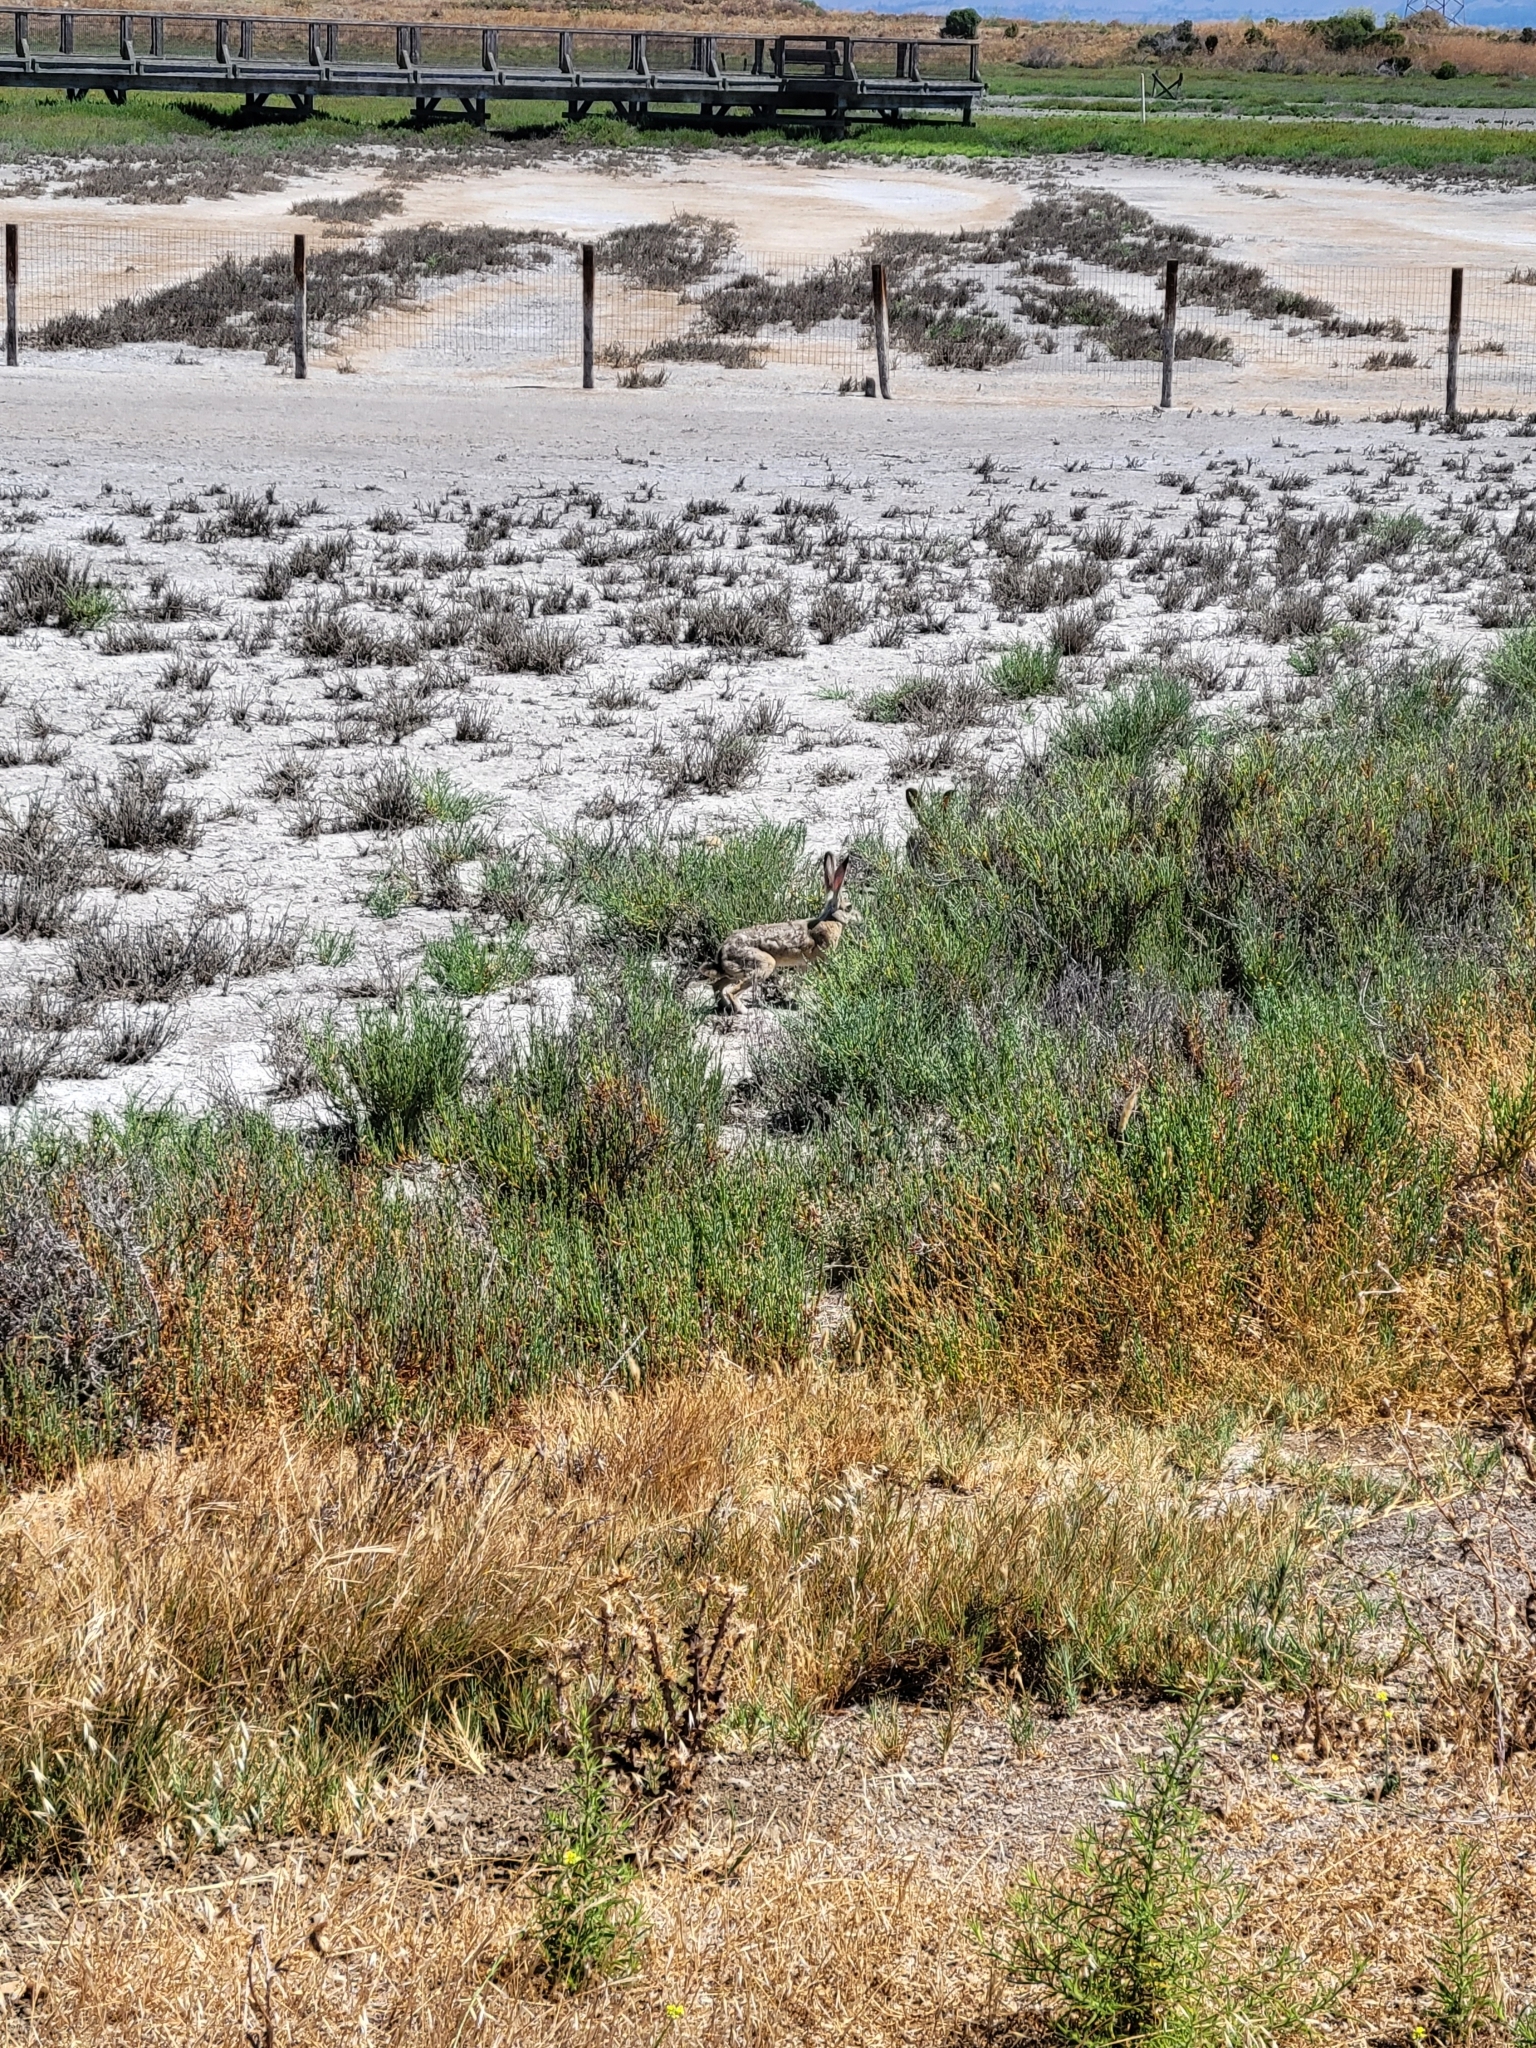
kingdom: Animalia
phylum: Chordata
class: Mammalia
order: Lagomorpha
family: Leporidae
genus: Lepus
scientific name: Lepus californicus
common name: Black-tailed jackrabbit
